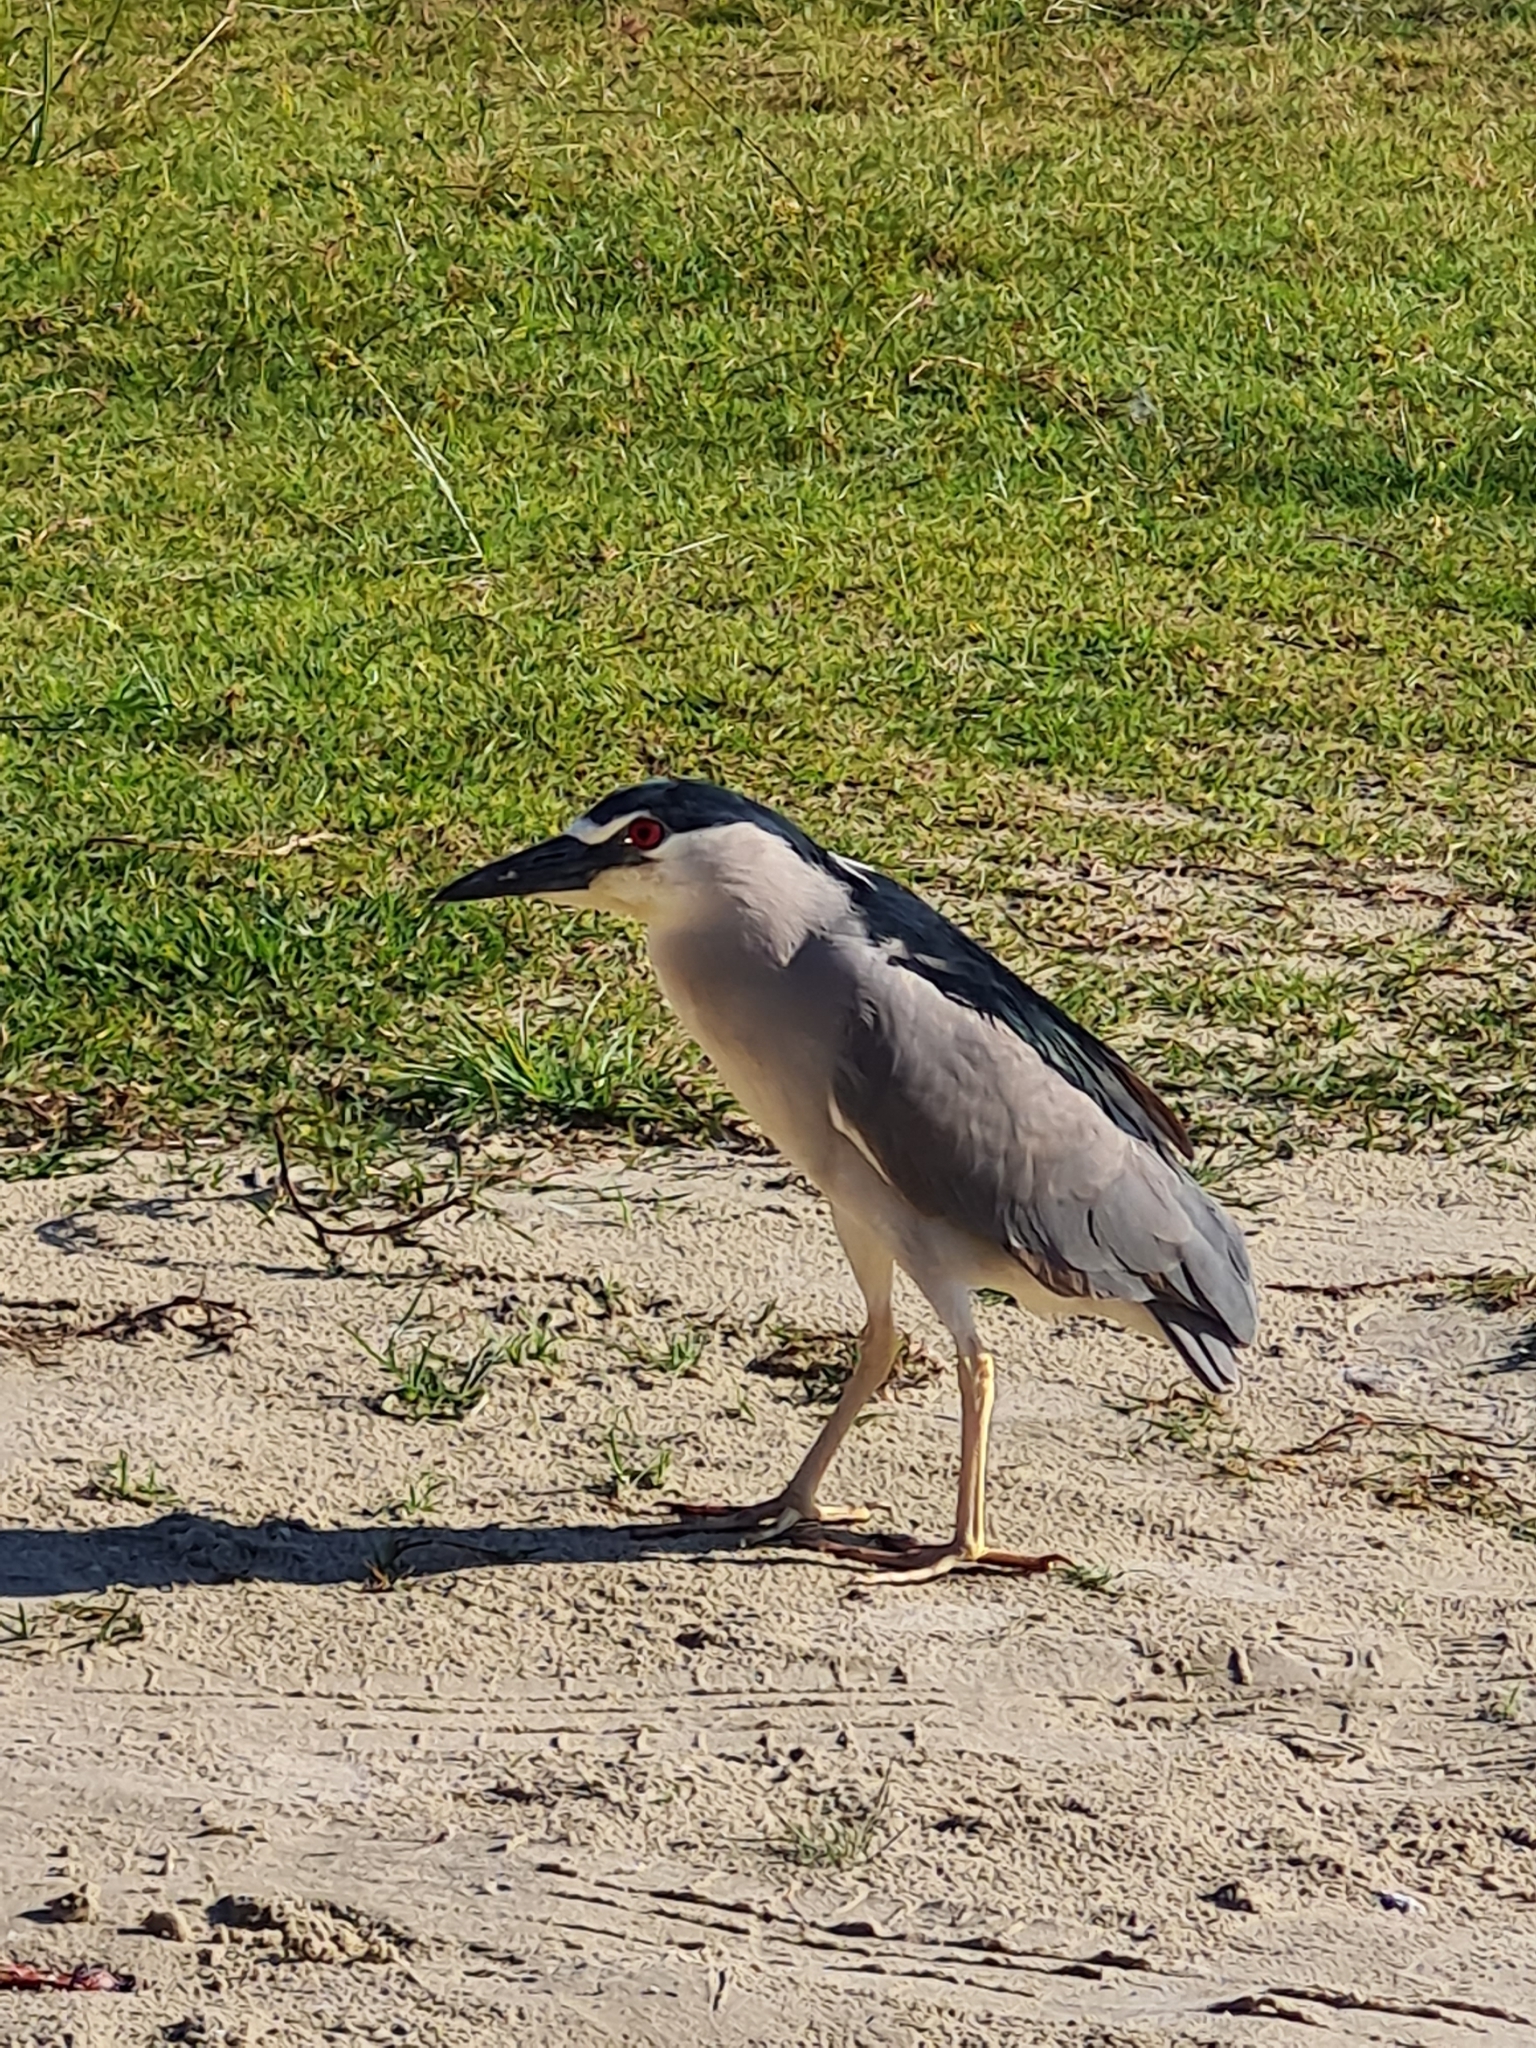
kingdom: Animalia
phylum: Chordata
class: Aves
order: Pelecaniformes
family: Ardeidae
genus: Nycticorax
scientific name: Nycticorax nycticorax
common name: Black-crowned night heron
